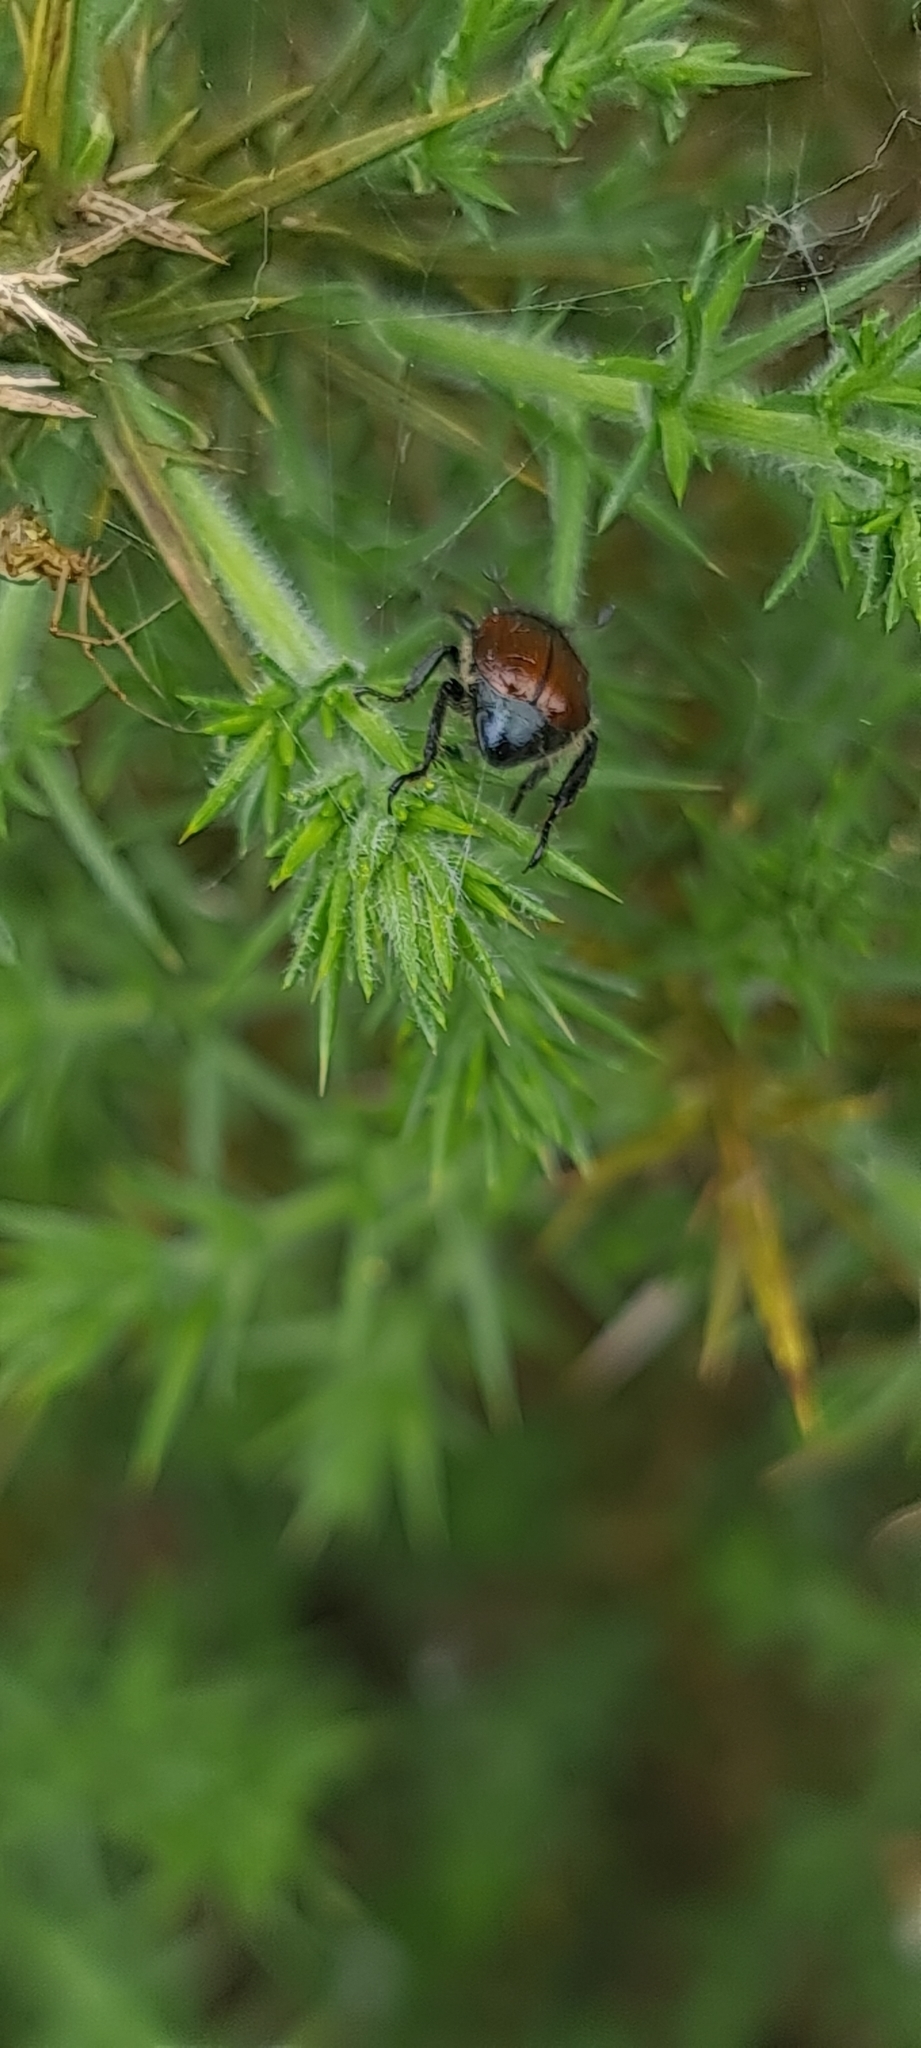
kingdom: Animalia
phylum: Arthropoda
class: Insecta
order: Coleoptera
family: Scarabaeidae
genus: Phyllopertha
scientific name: Phyllopertha horticola
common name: Garden chafer
